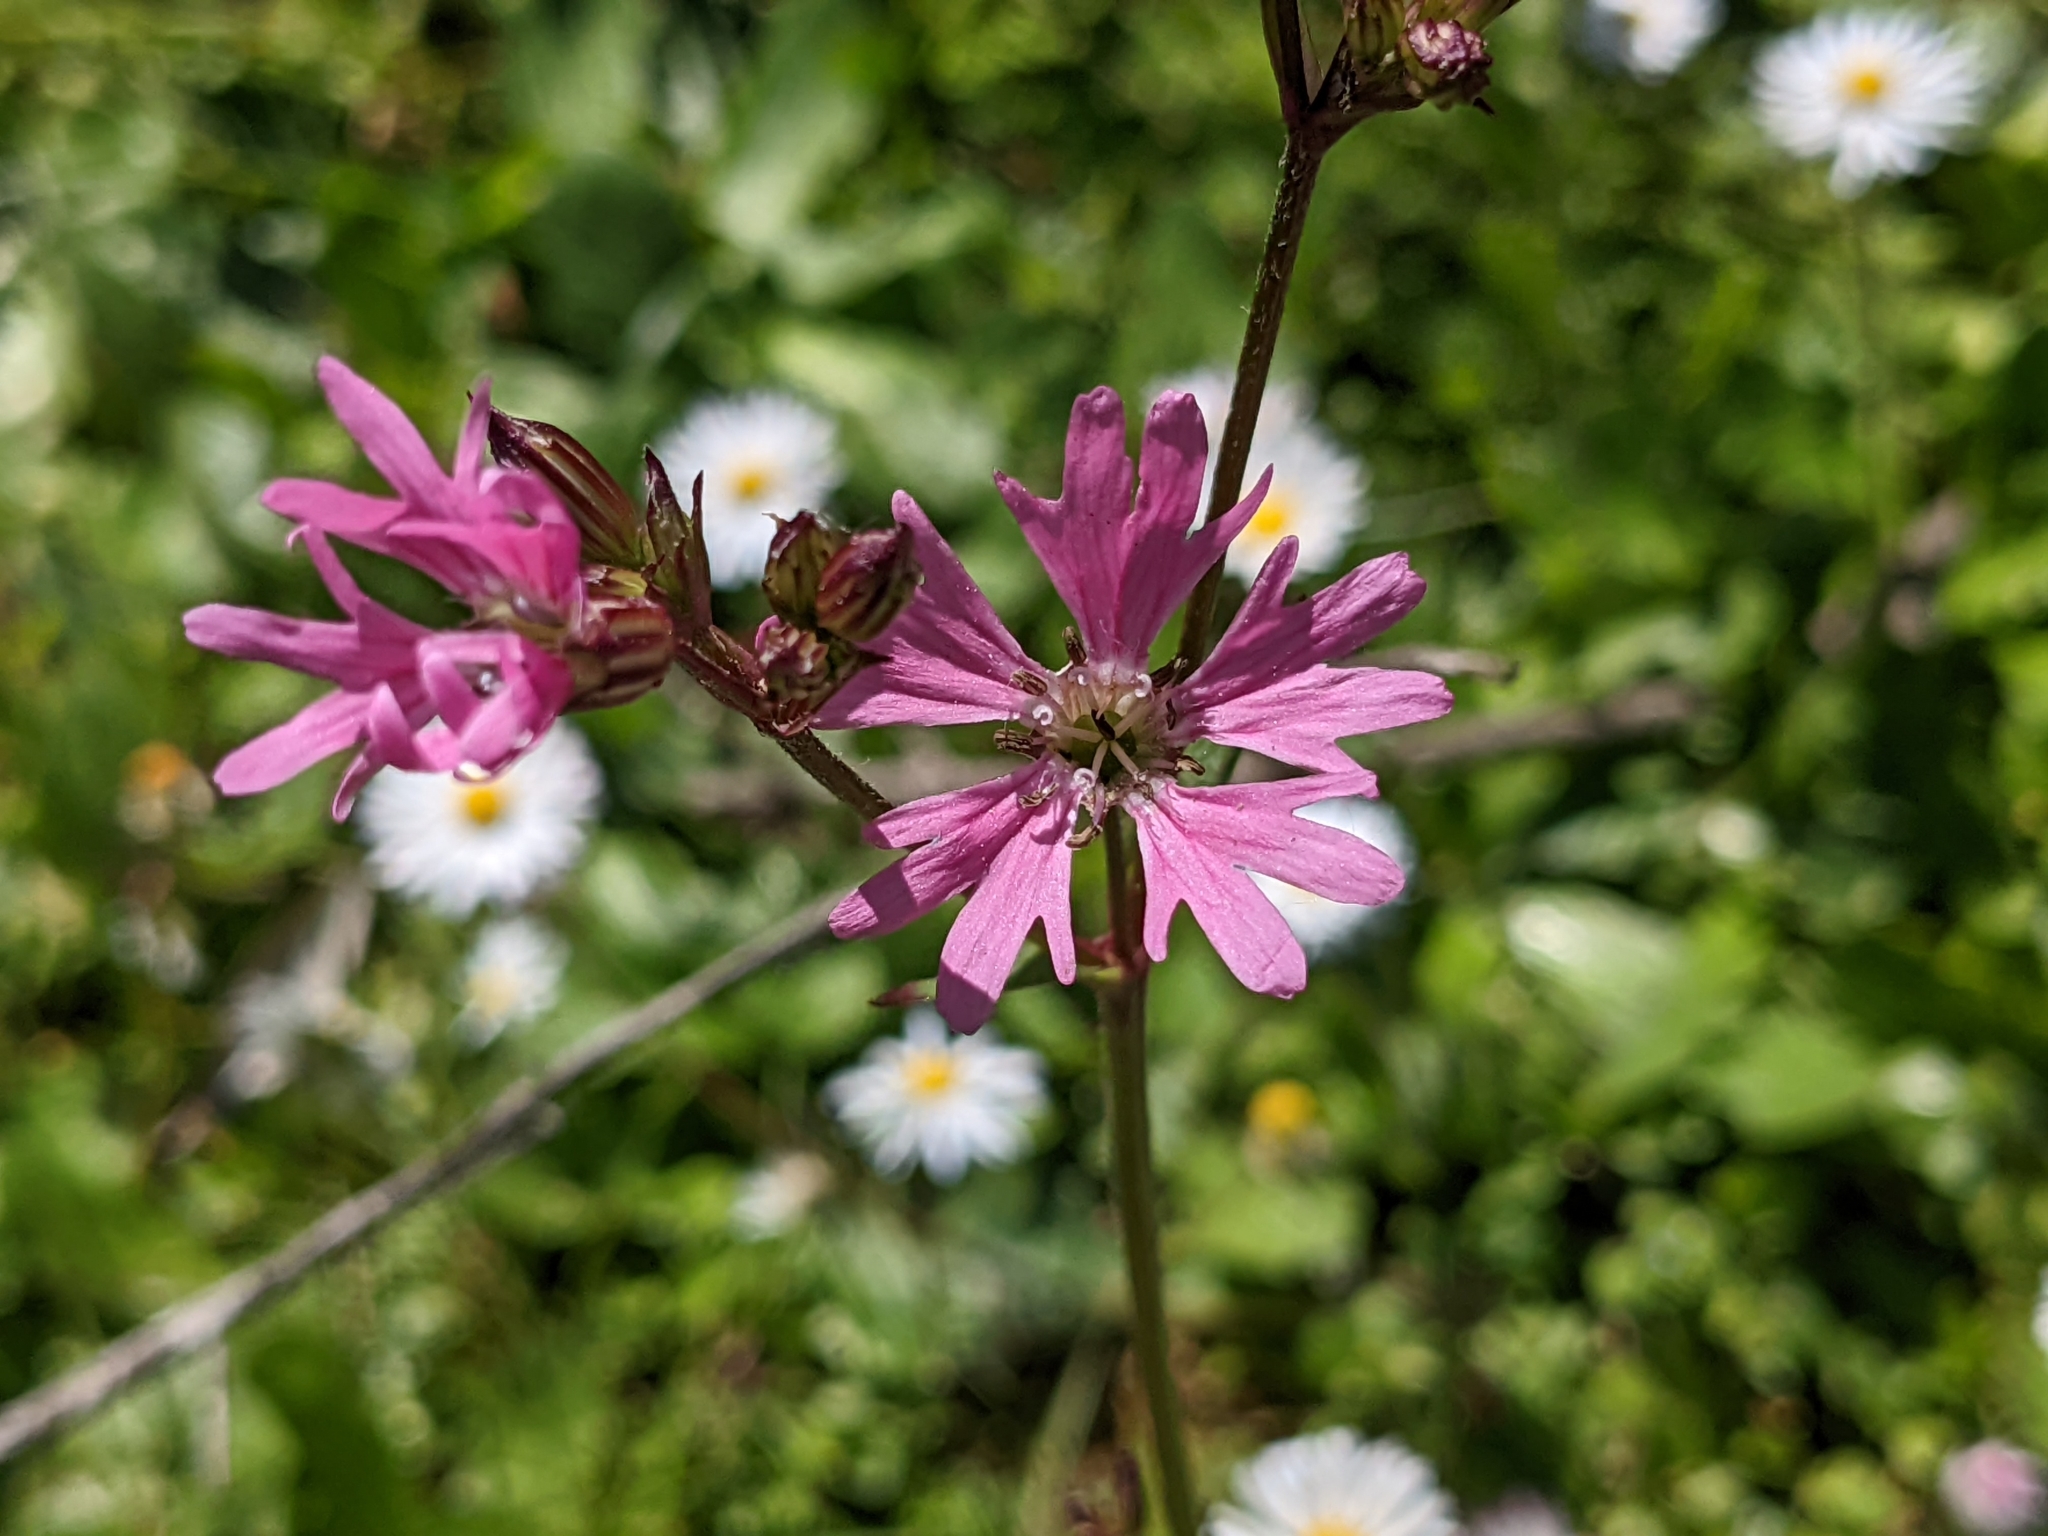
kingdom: Plantae
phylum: Tracheophyta
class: Magnoliopsida
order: Caryophyllales
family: Caryophyllaceae
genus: Silene
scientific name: Silene flos-cuculi
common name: Ragged-robin
